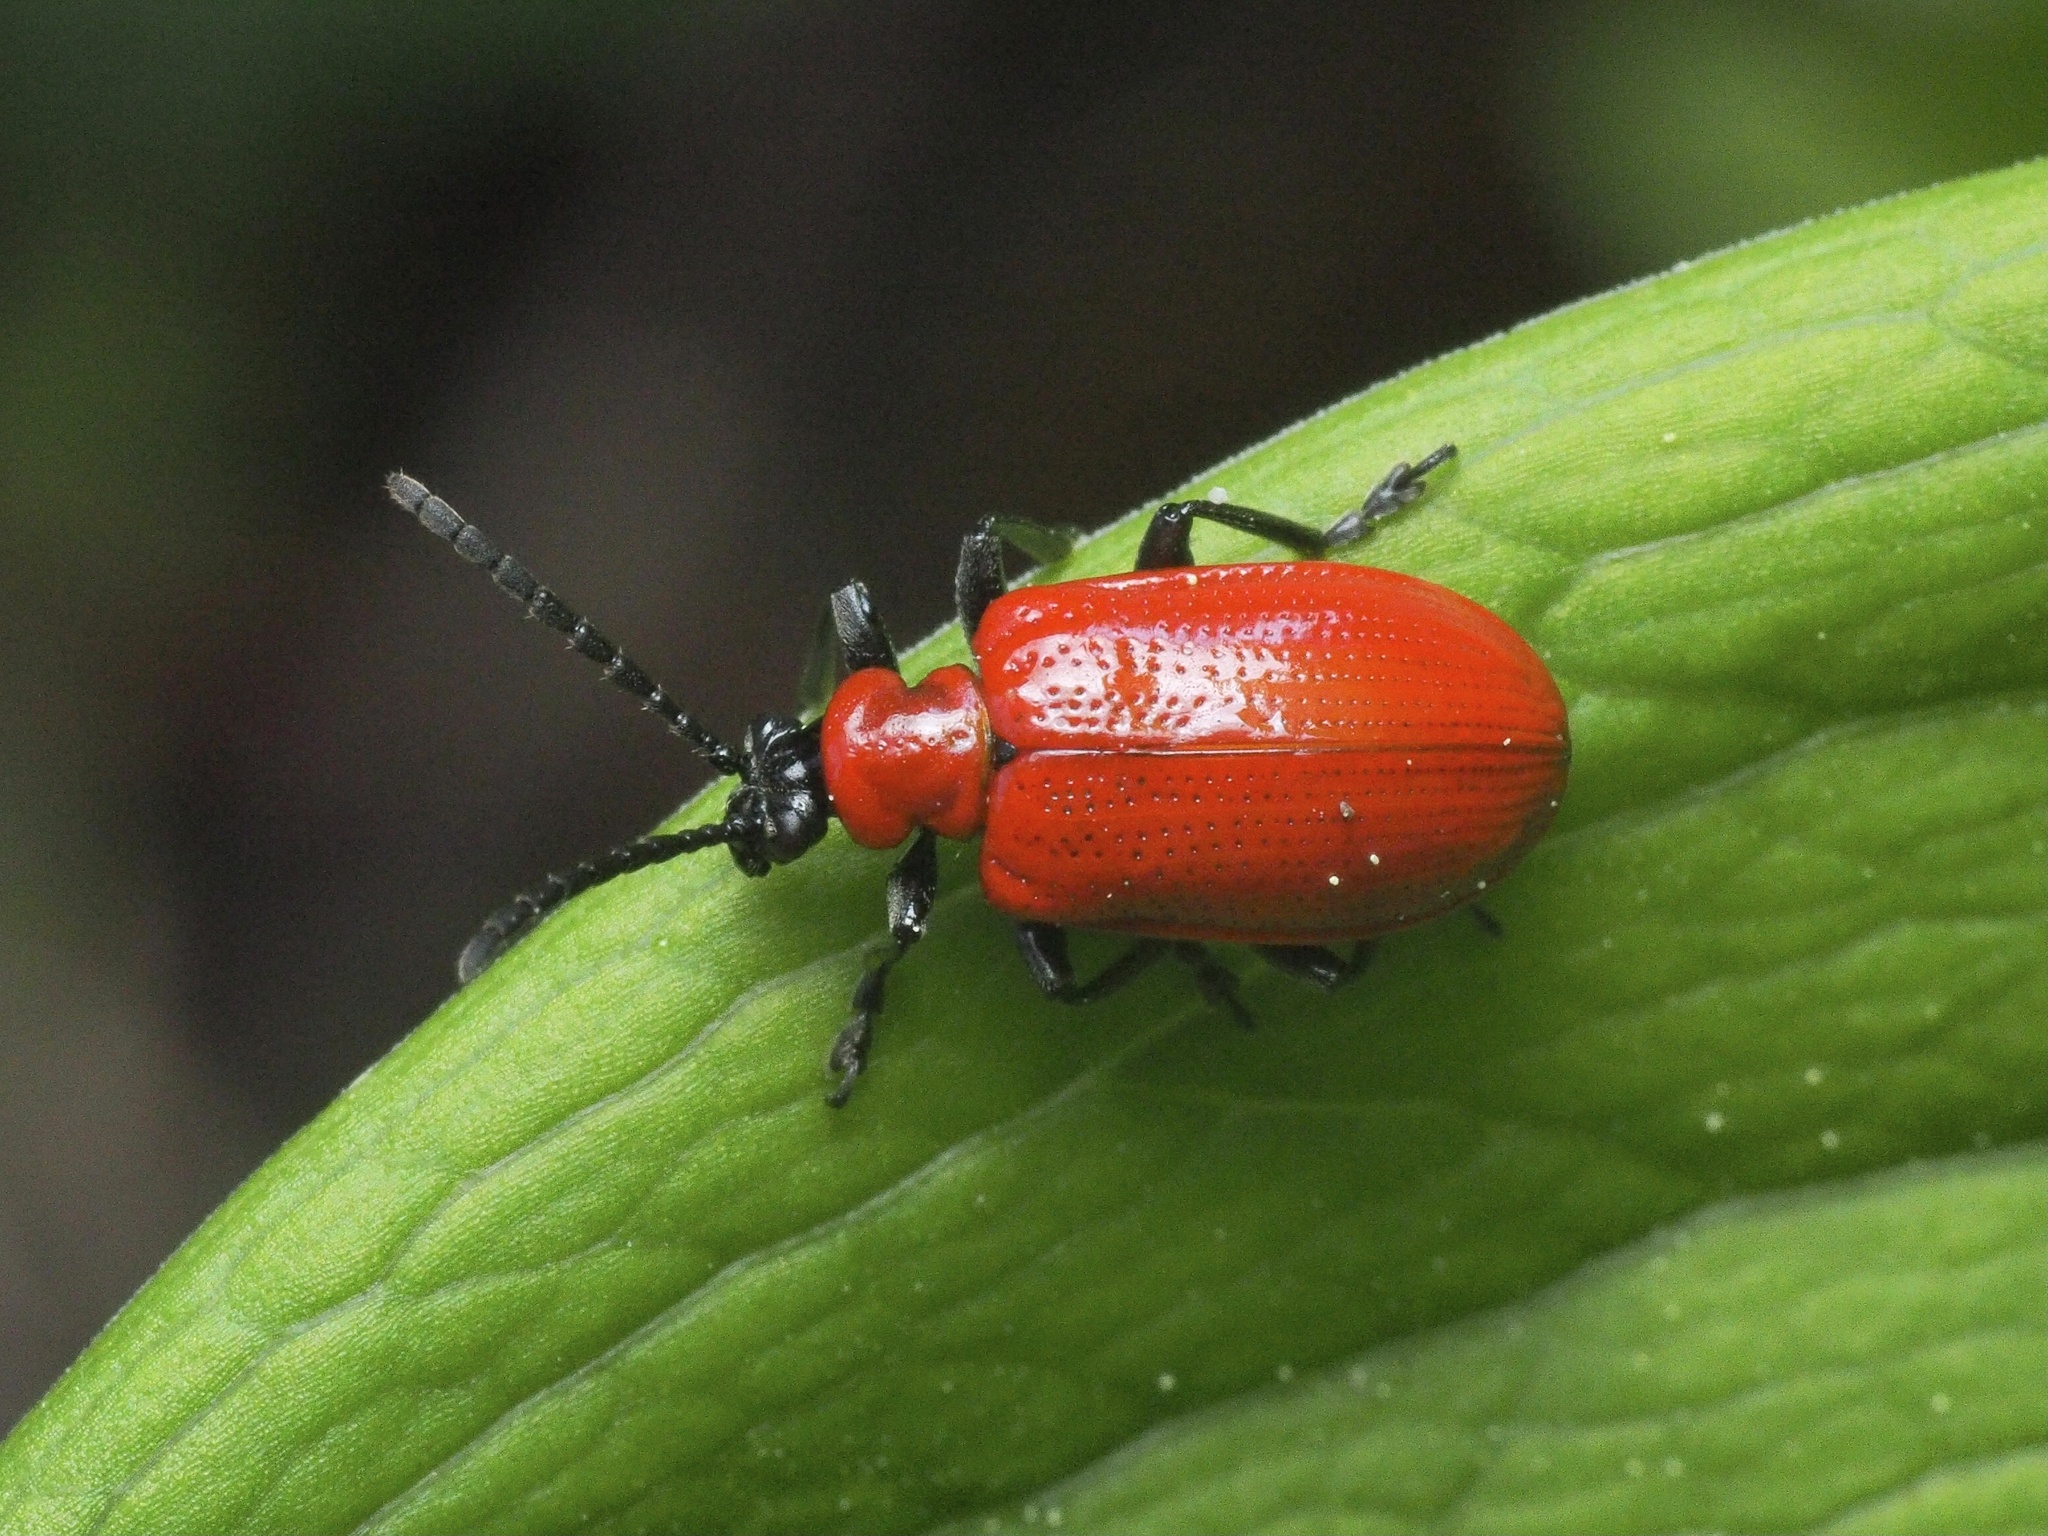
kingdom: Animalia
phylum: Arthropoda
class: Insecta
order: Coleoptera
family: Chrysomelidae
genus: Lilioceris
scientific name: Lilioceris lilii
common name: Lily beetle
